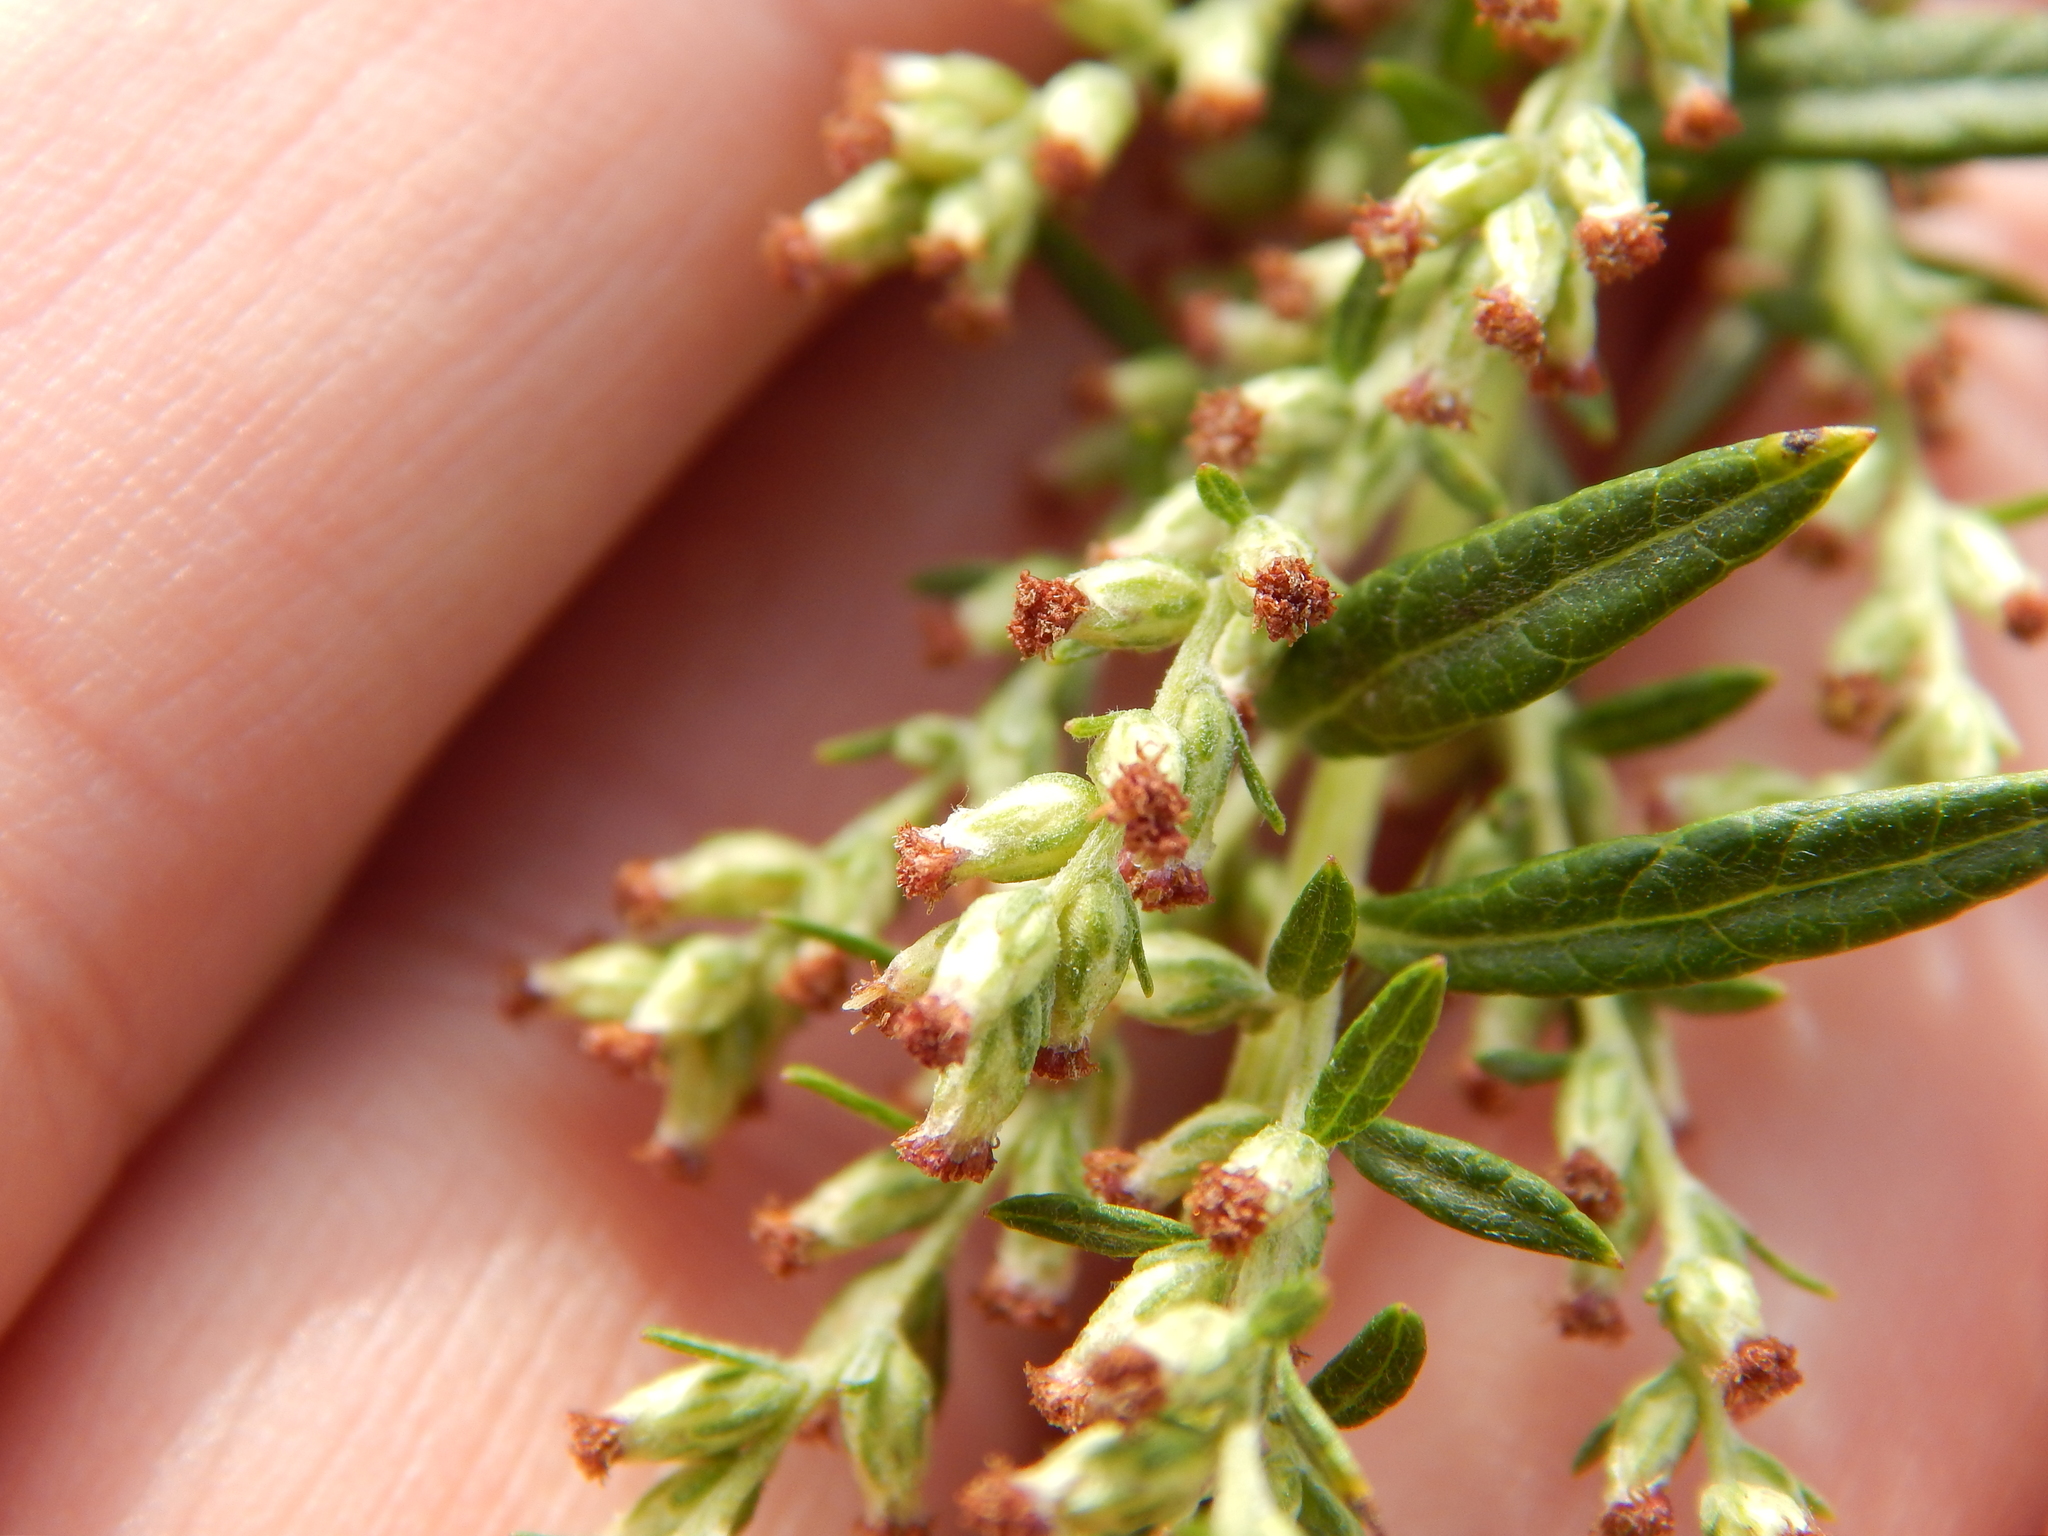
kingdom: Plantae
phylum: Tracheophyta
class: Magnoliopsida
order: Asterales
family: Asteraceae
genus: Artemisia
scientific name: Artemisia vulgaris
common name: Mugwort
